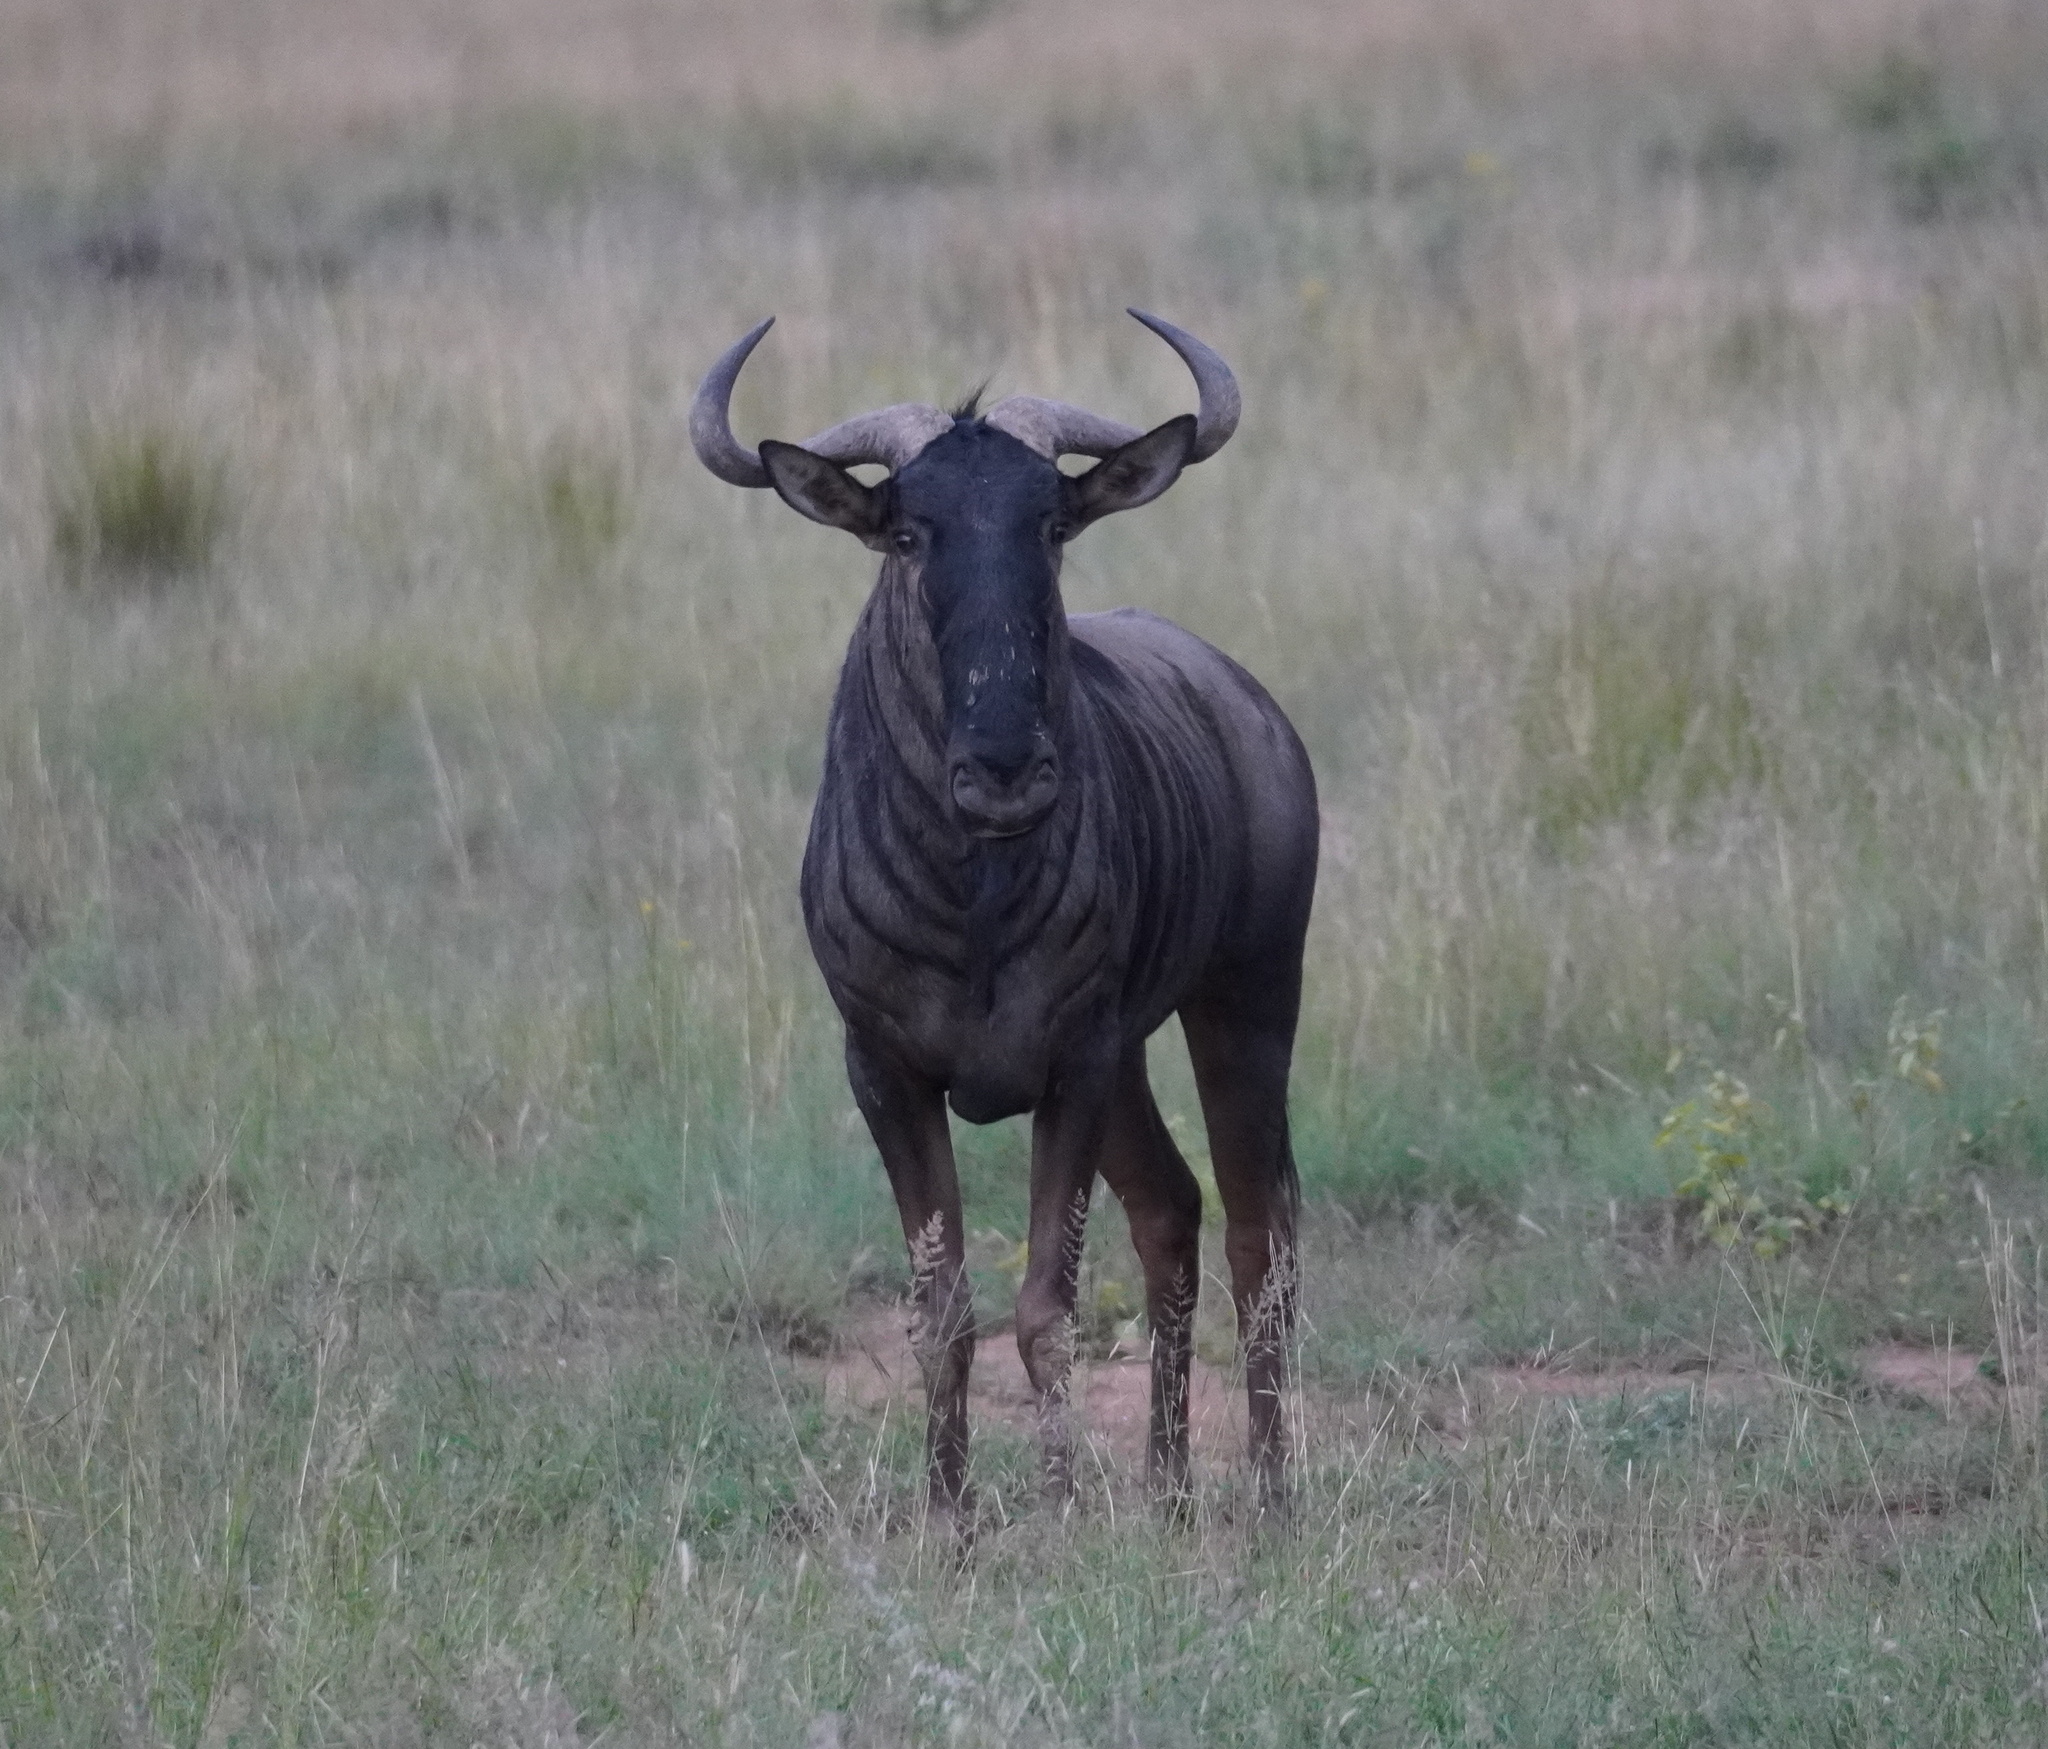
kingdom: Animalia
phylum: Chordata
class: Mammalia
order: Artiodactyla
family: Bovidae
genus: Connochaetes
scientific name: Connochaetes taurinus
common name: Blue wildebeest
